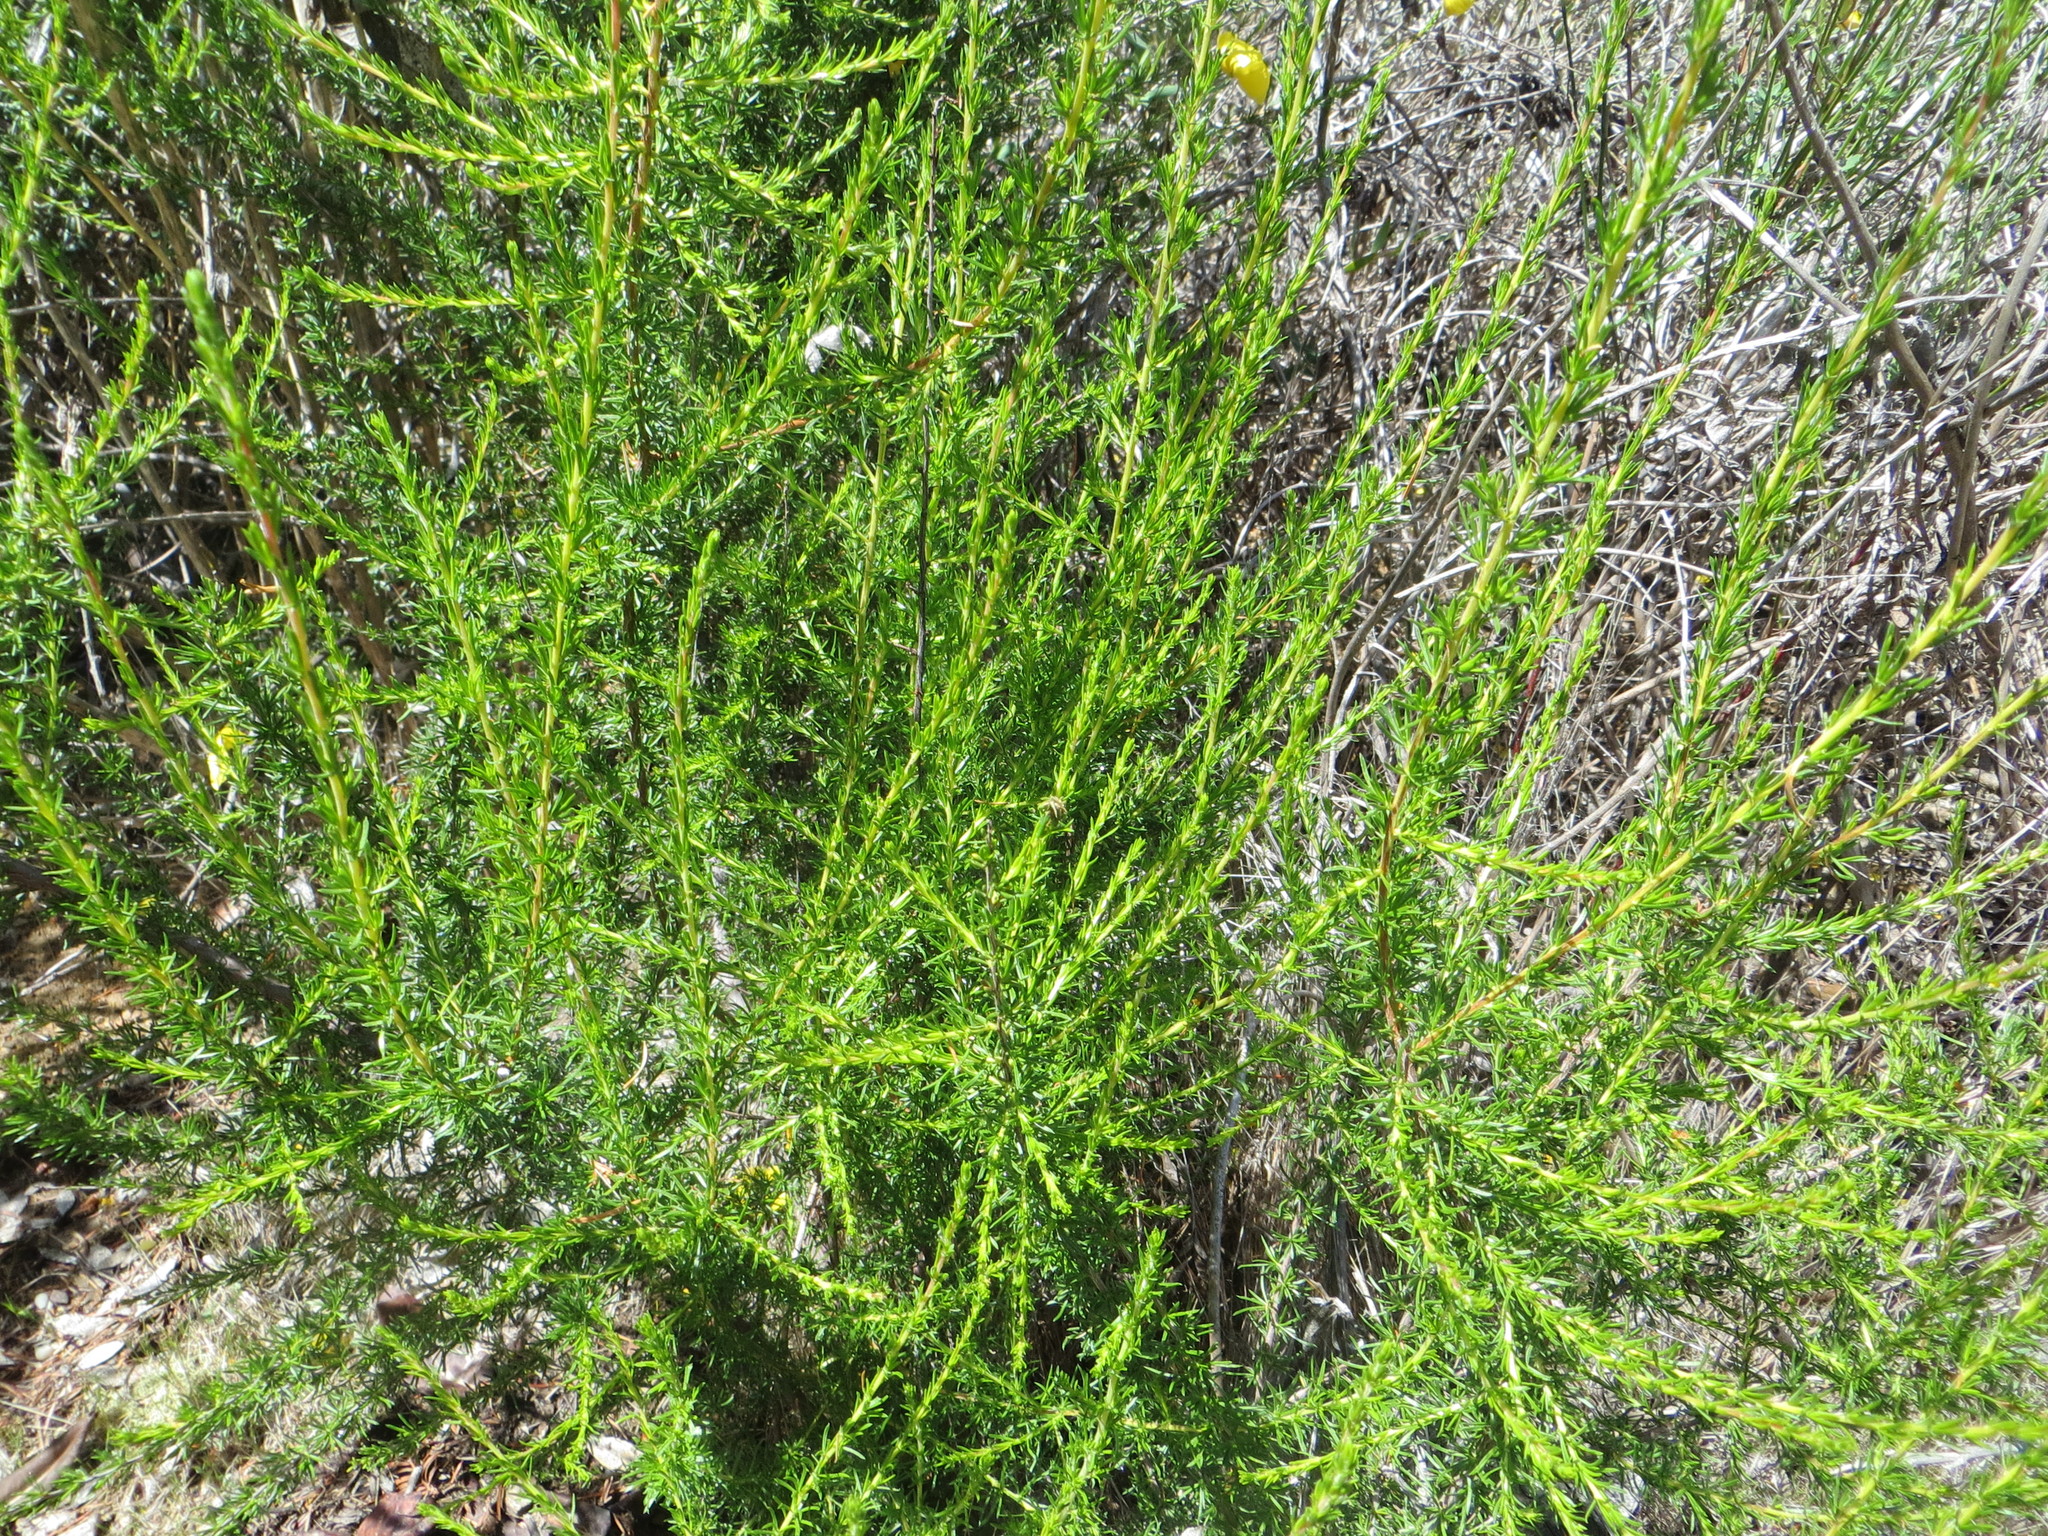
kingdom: Plantae
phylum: Tracheophyta
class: Magnoliopsida
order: Rosales
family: Rosaceae
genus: Adenostoma
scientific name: Adenostoma fasciculatum
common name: Chamise
